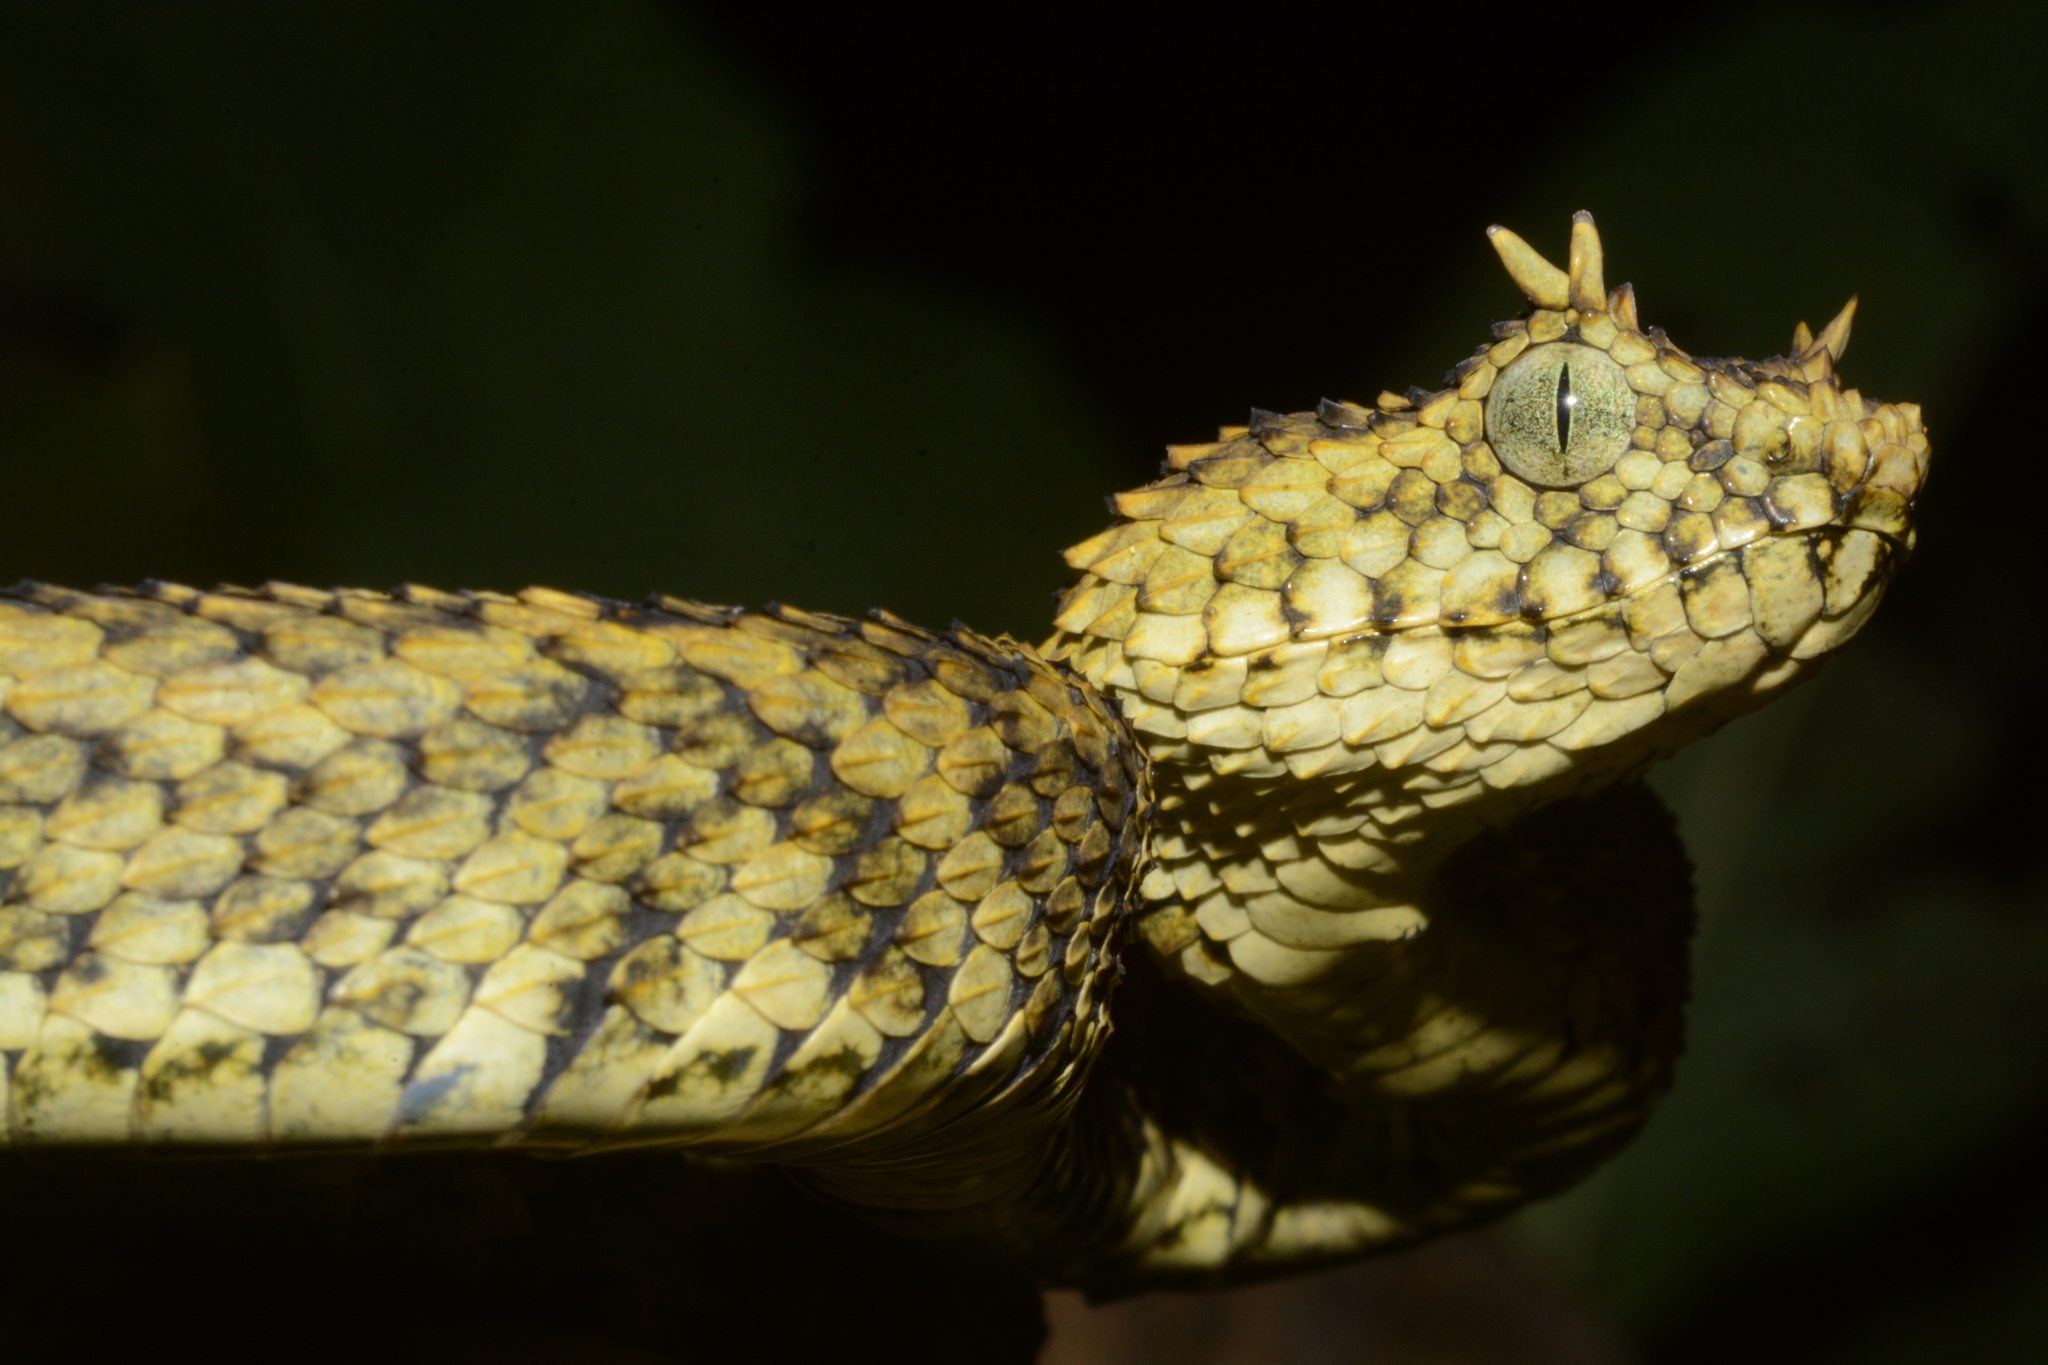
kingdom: Animalia
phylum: Chordata
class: Squamata
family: Viperidae
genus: Atheris
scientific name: Atheris ceratophora
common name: Usambara eyelash viper
